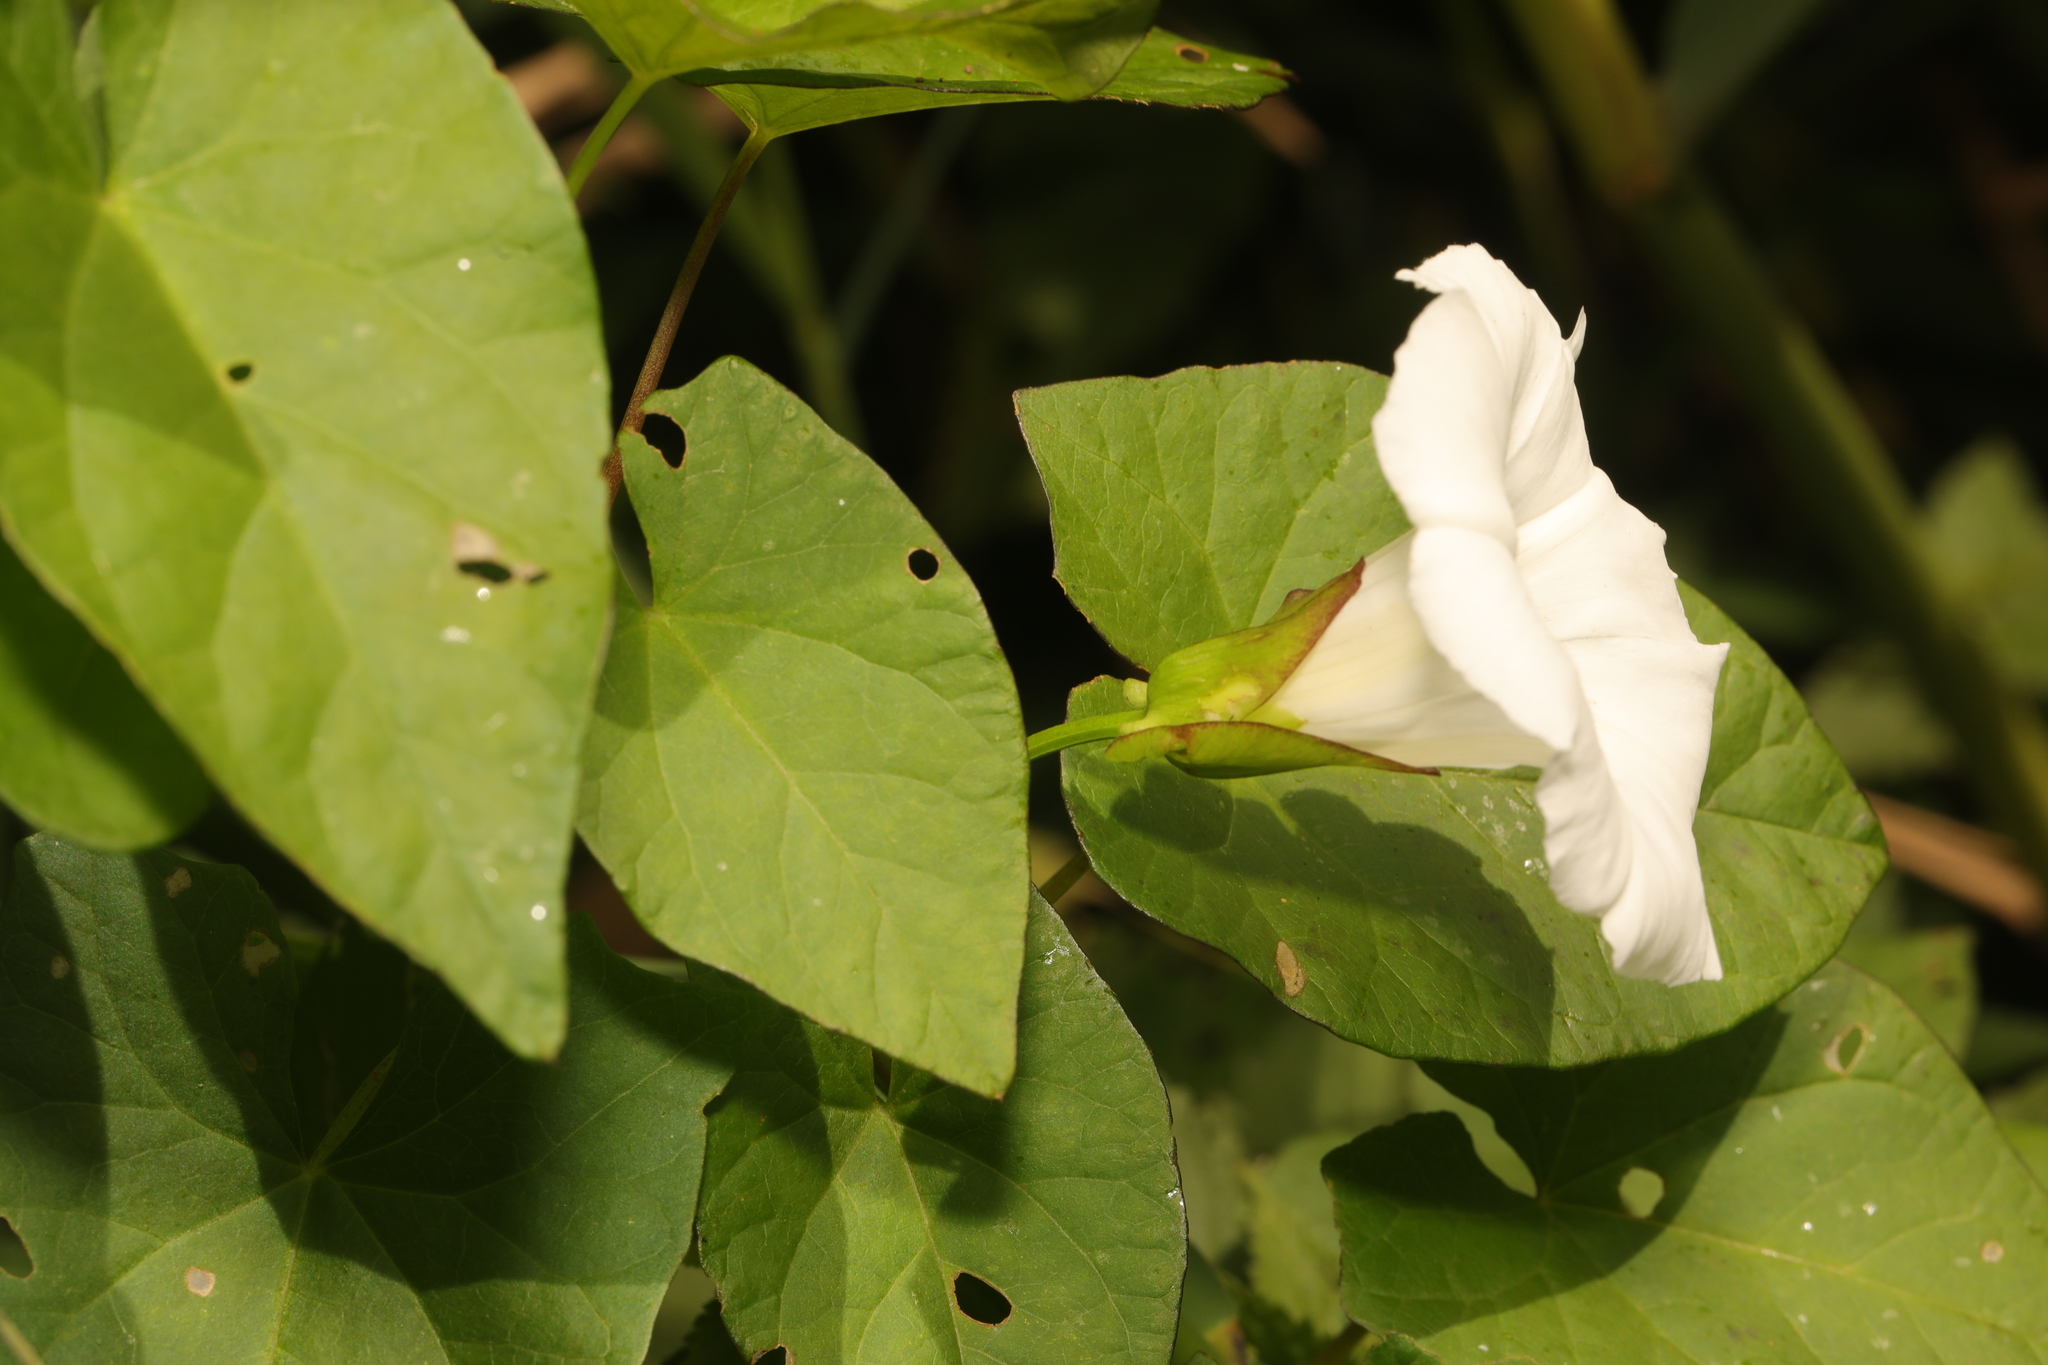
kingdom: Plantae
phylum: Tracheophyta
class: Magnoliopsida
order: Solanales
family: Convolvulaceae
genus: Calystegia
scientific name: Calystegia sepium
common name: Hedge bindweed
